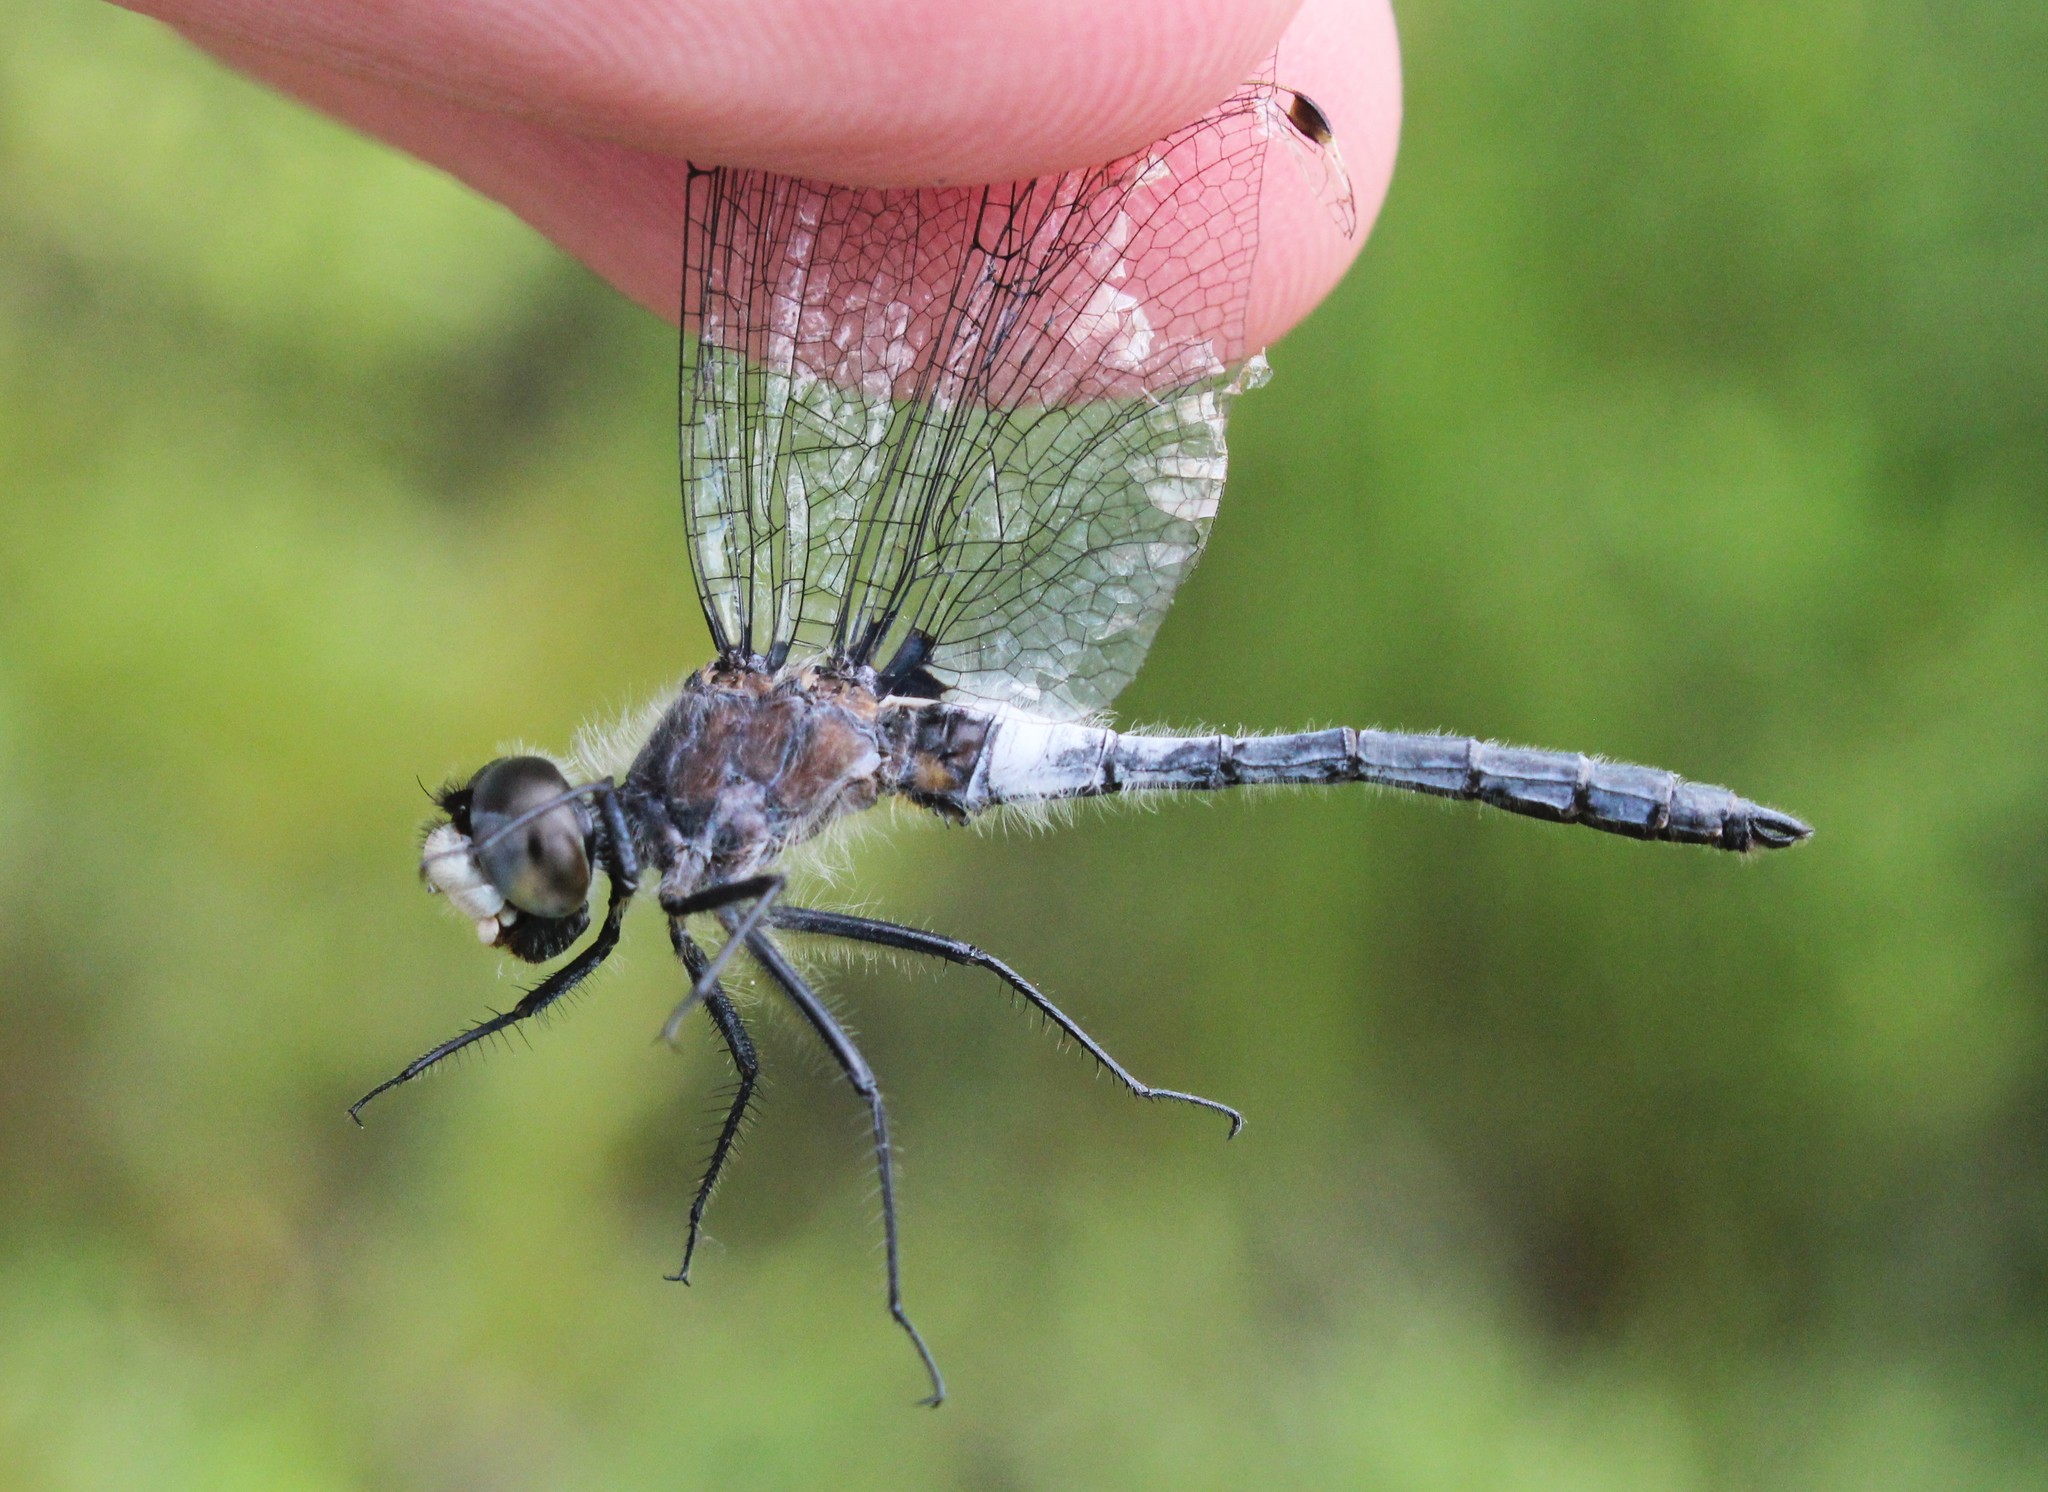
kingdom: Animalia
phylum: Arthropoda
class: Insecta
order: Odonata
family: Libellulidae
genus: Leucorrhinia
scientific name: Leucorrhinia frigida
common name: Frosted whiteface
